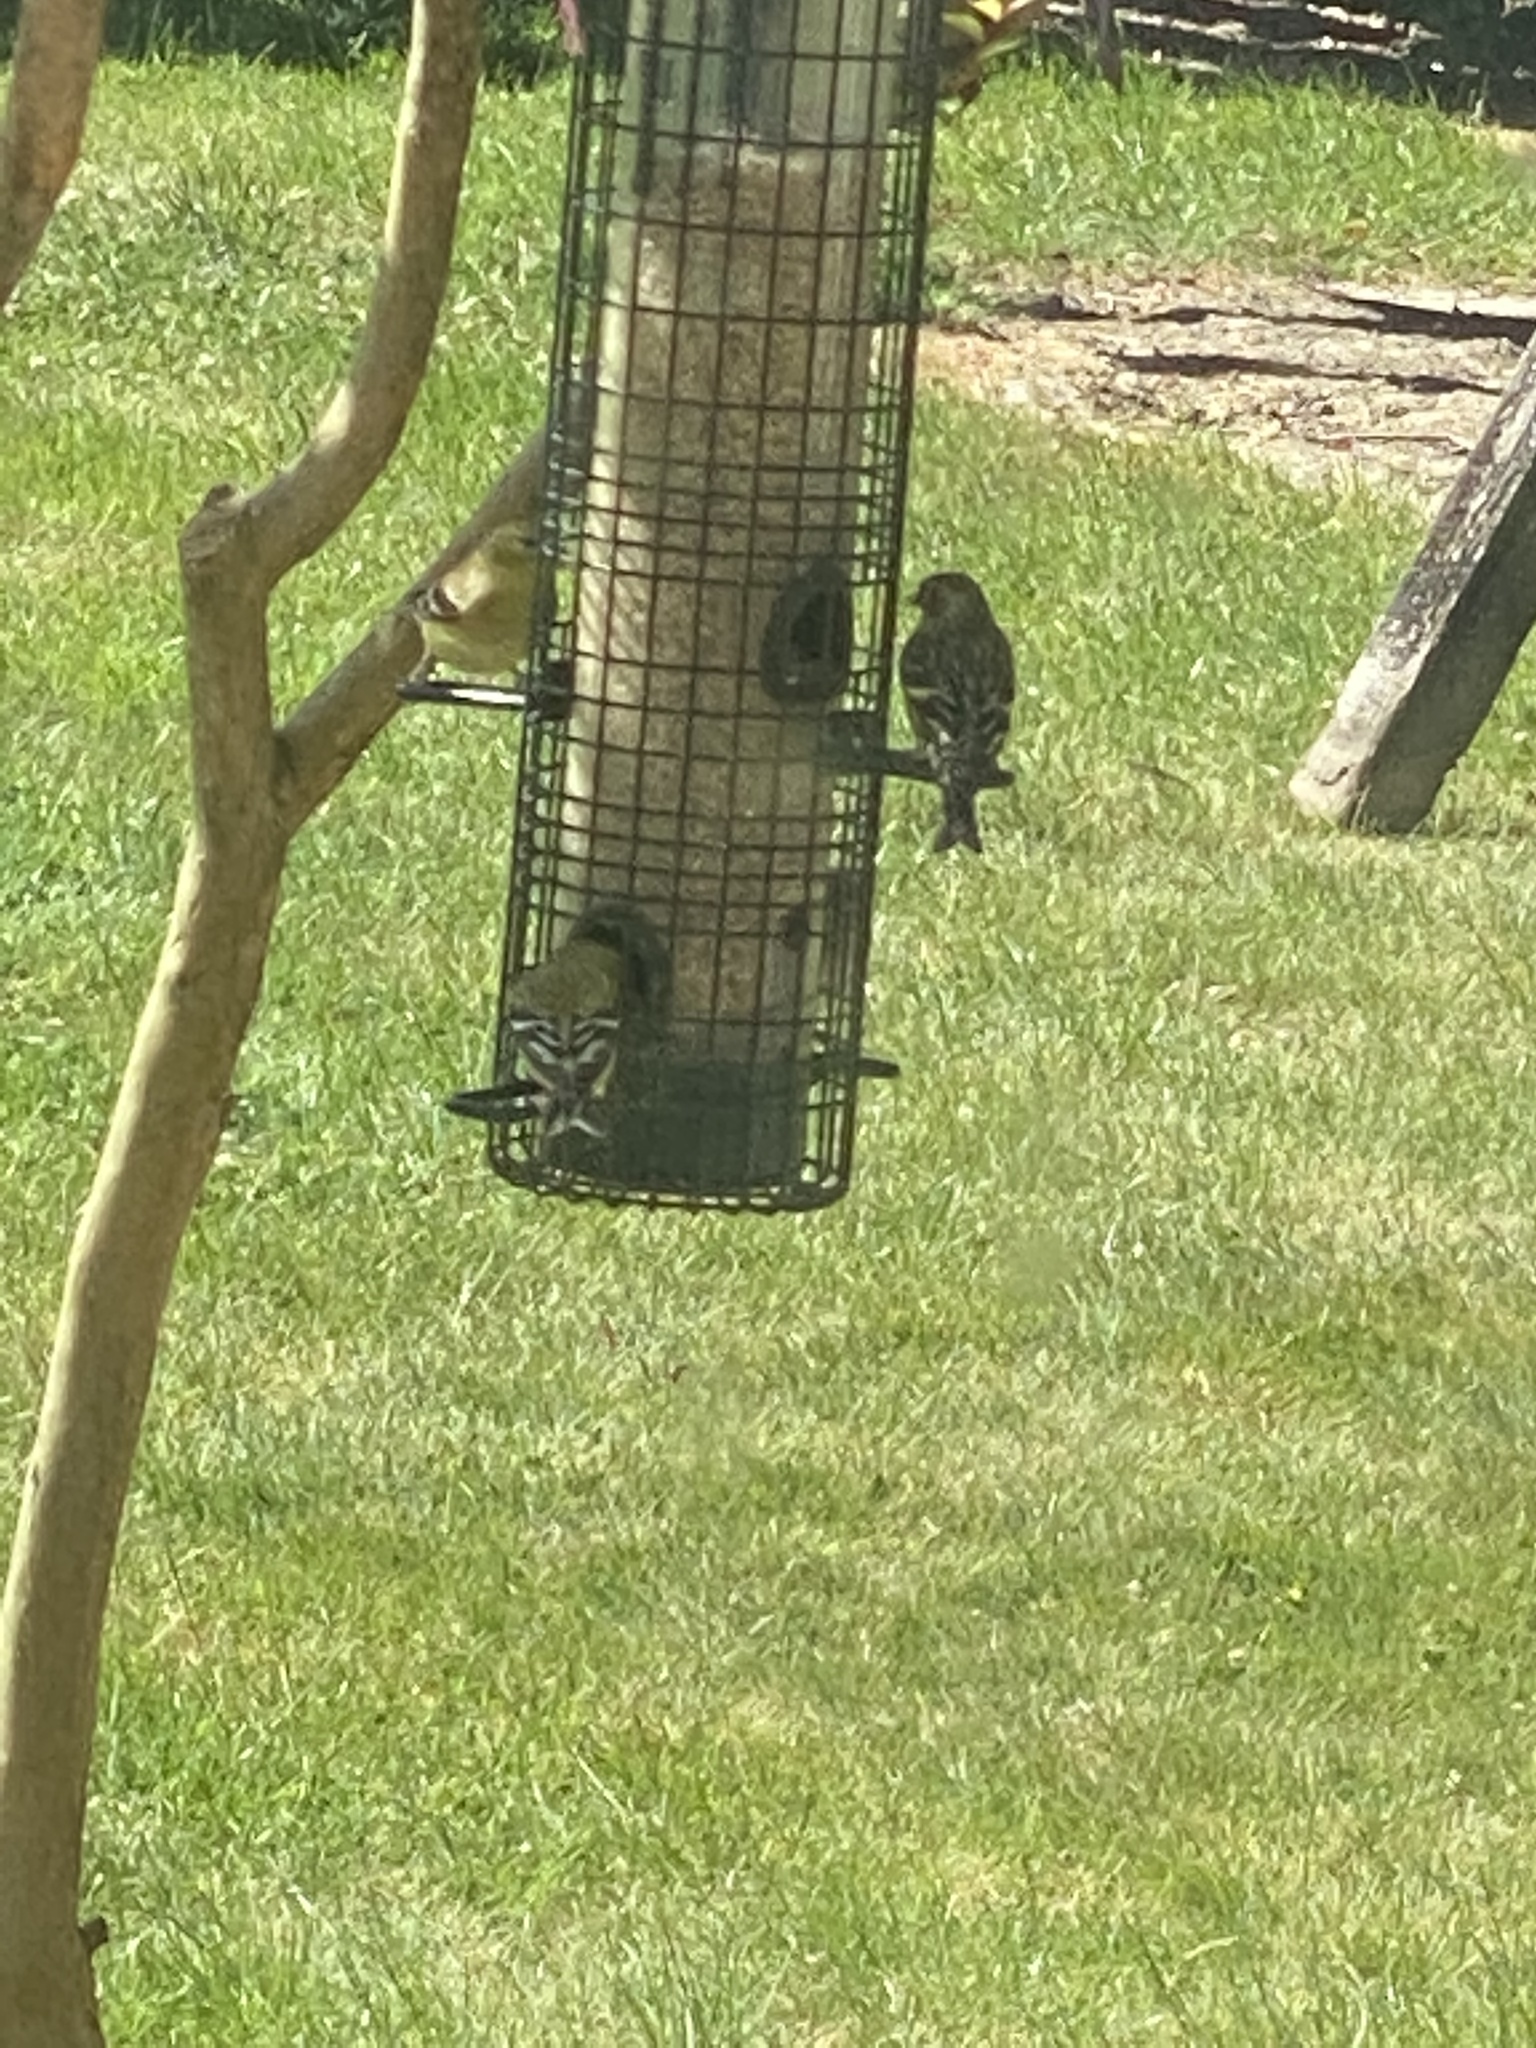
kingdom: Animalia
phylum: Chordata
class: Aves
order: Passeriformes
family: Fringillidae
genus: Spinus
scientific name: Spinus tristis
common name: American goldfinch
